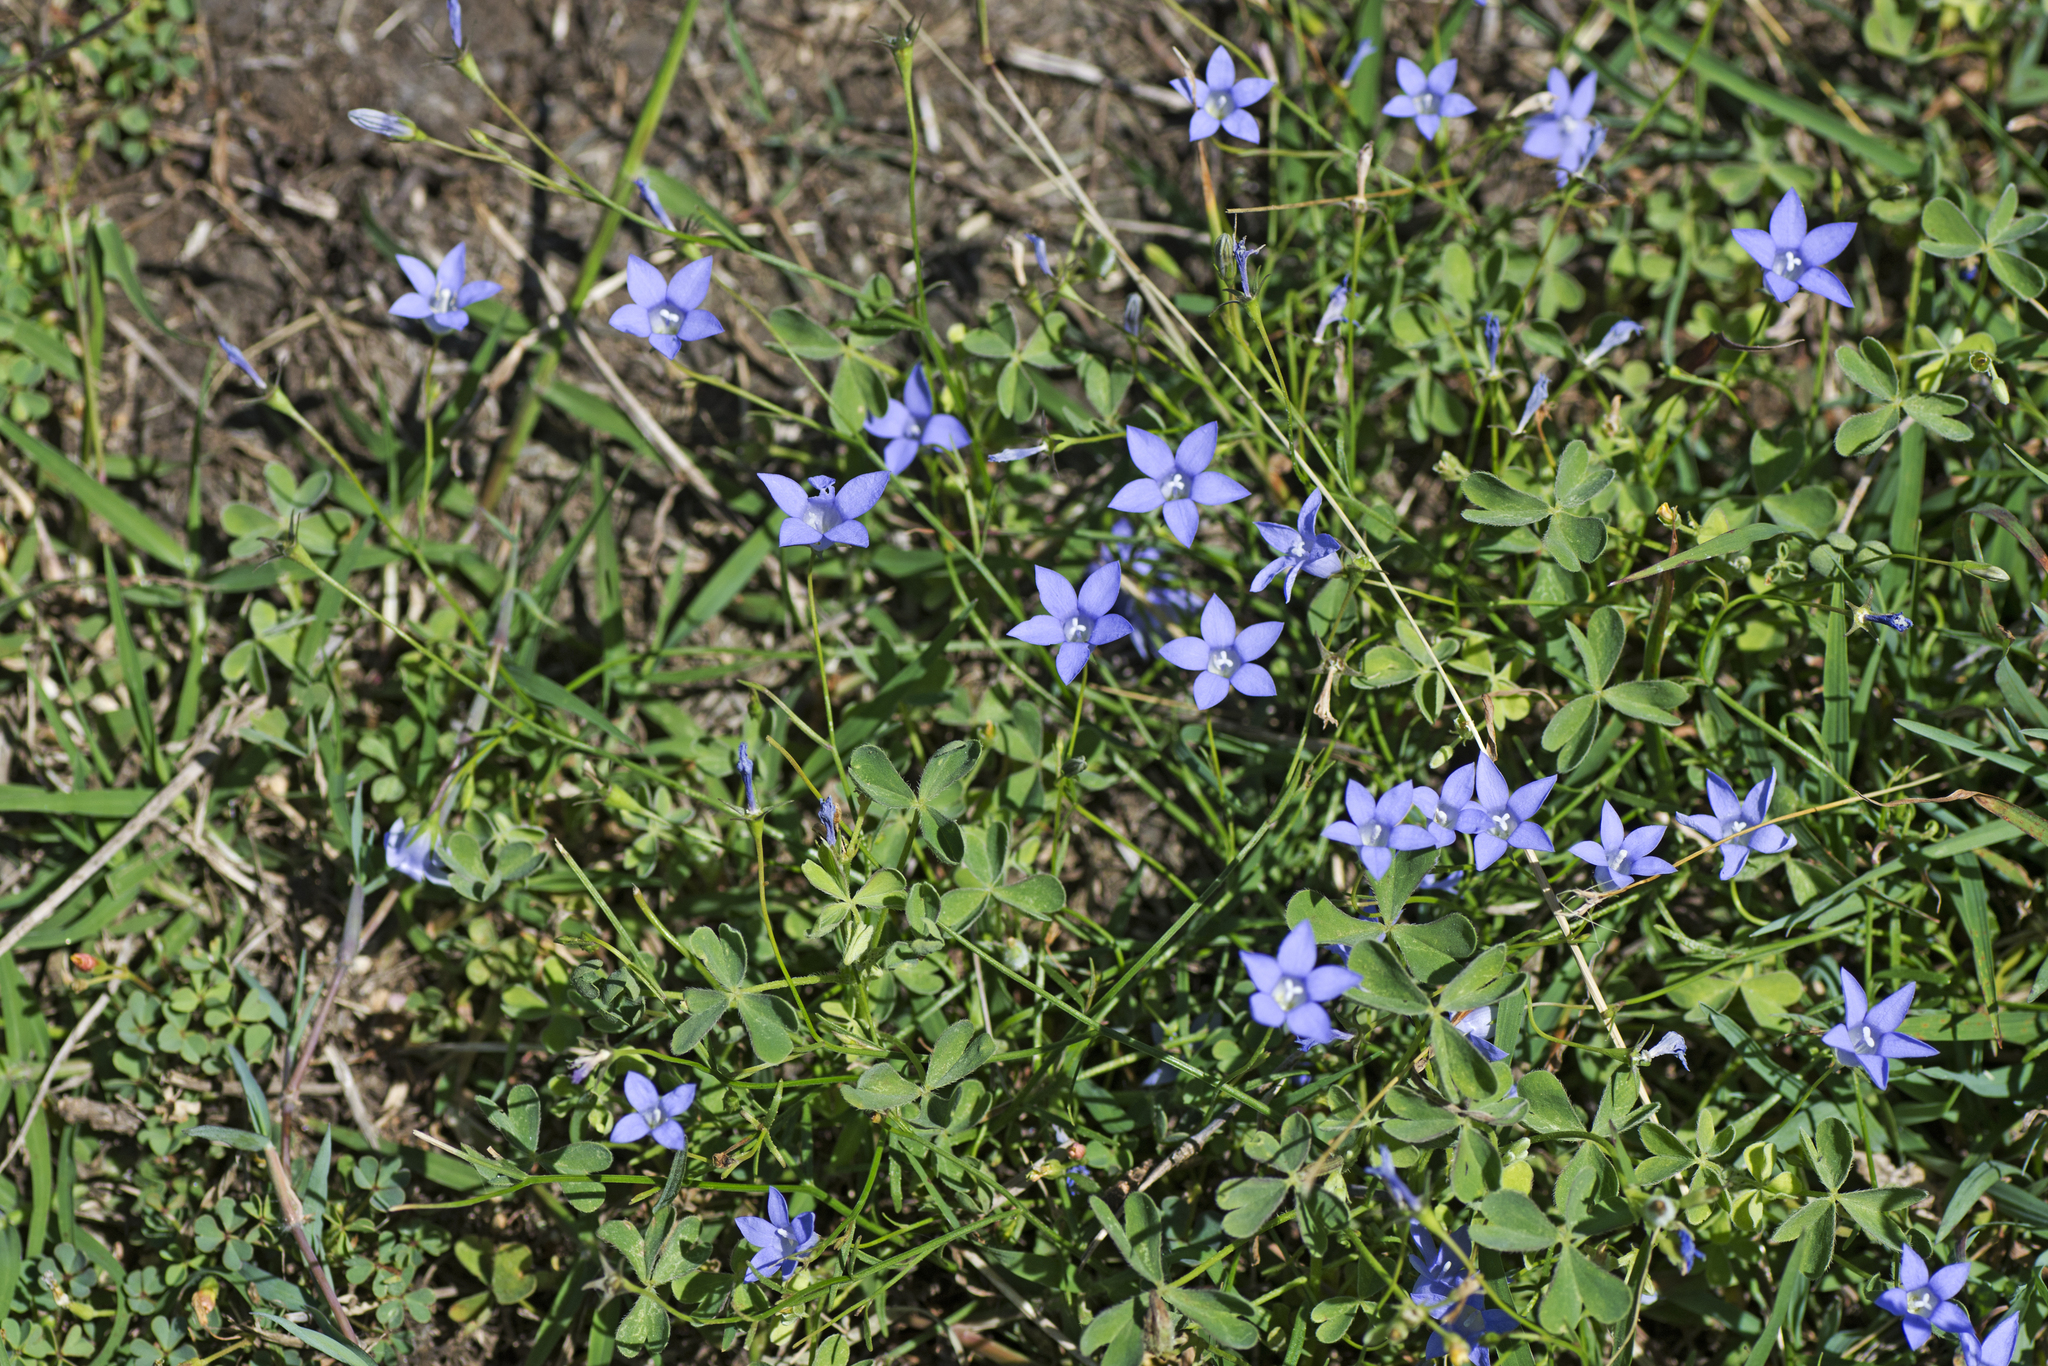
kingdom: Plantae
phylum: Tracheophyta
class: Magnoliopsida
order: Asterales
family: Campanulaceae
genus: Wahlenbergia
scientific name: Wahlenbergia gracilis
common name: Harebell
